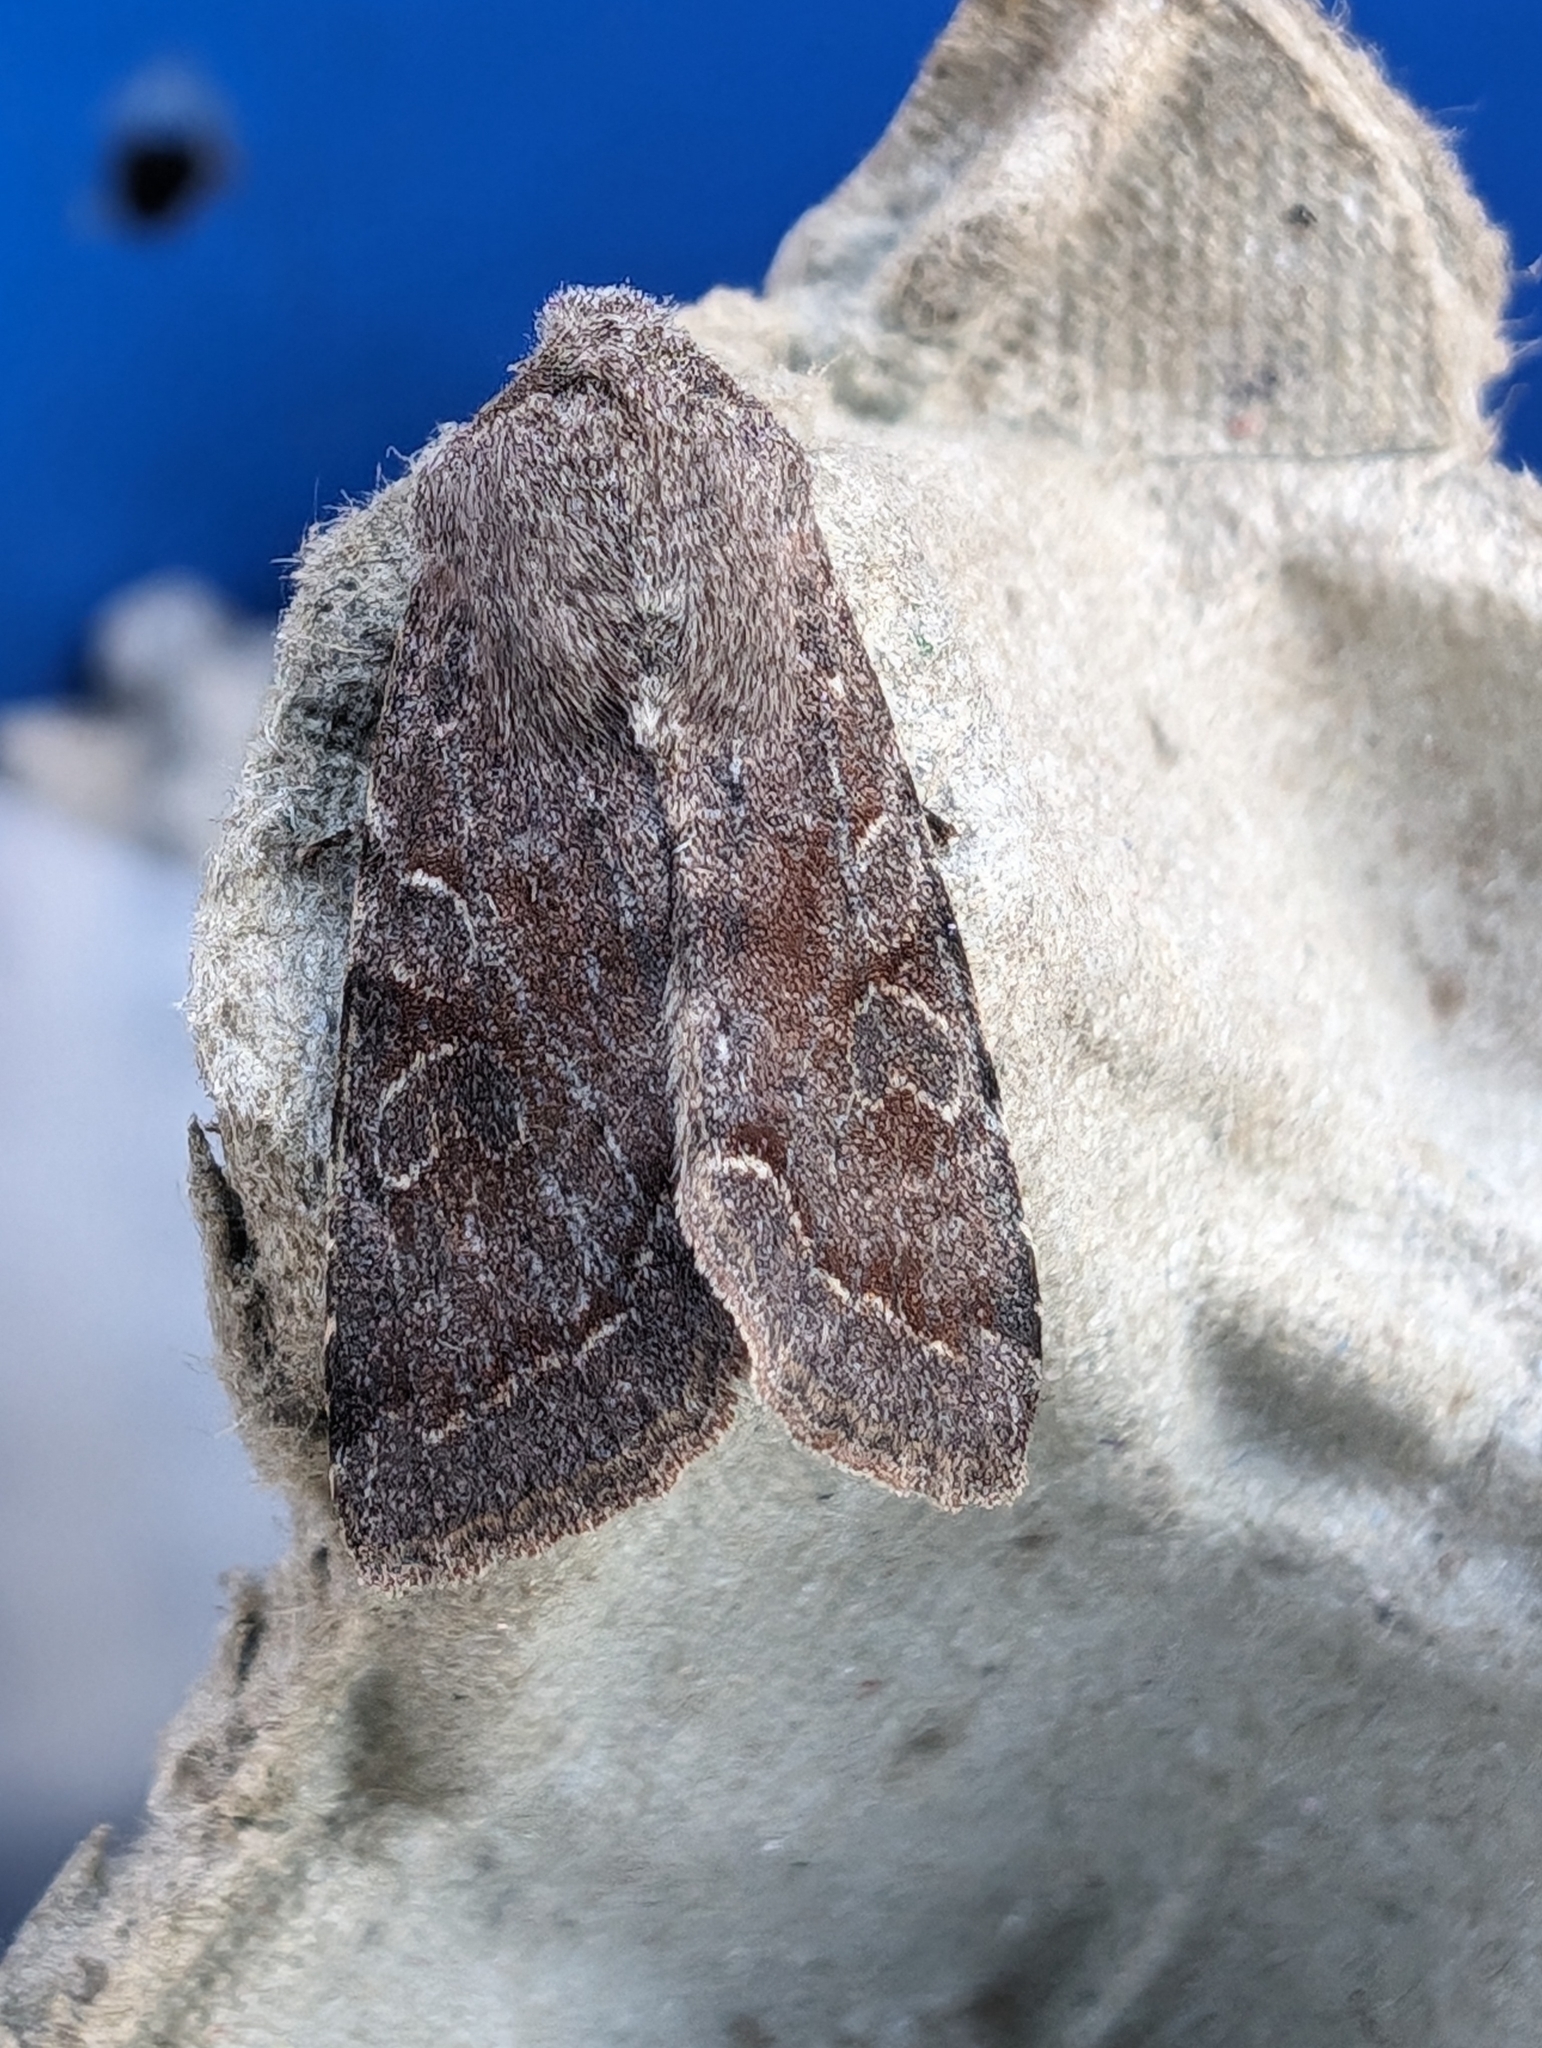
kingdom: Animalia
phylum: Arthropoda
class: Insecta
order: Lepidoptera
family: Noctuidae
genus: Orthosia
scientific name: Orthosia incerta
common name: Clouded drab
